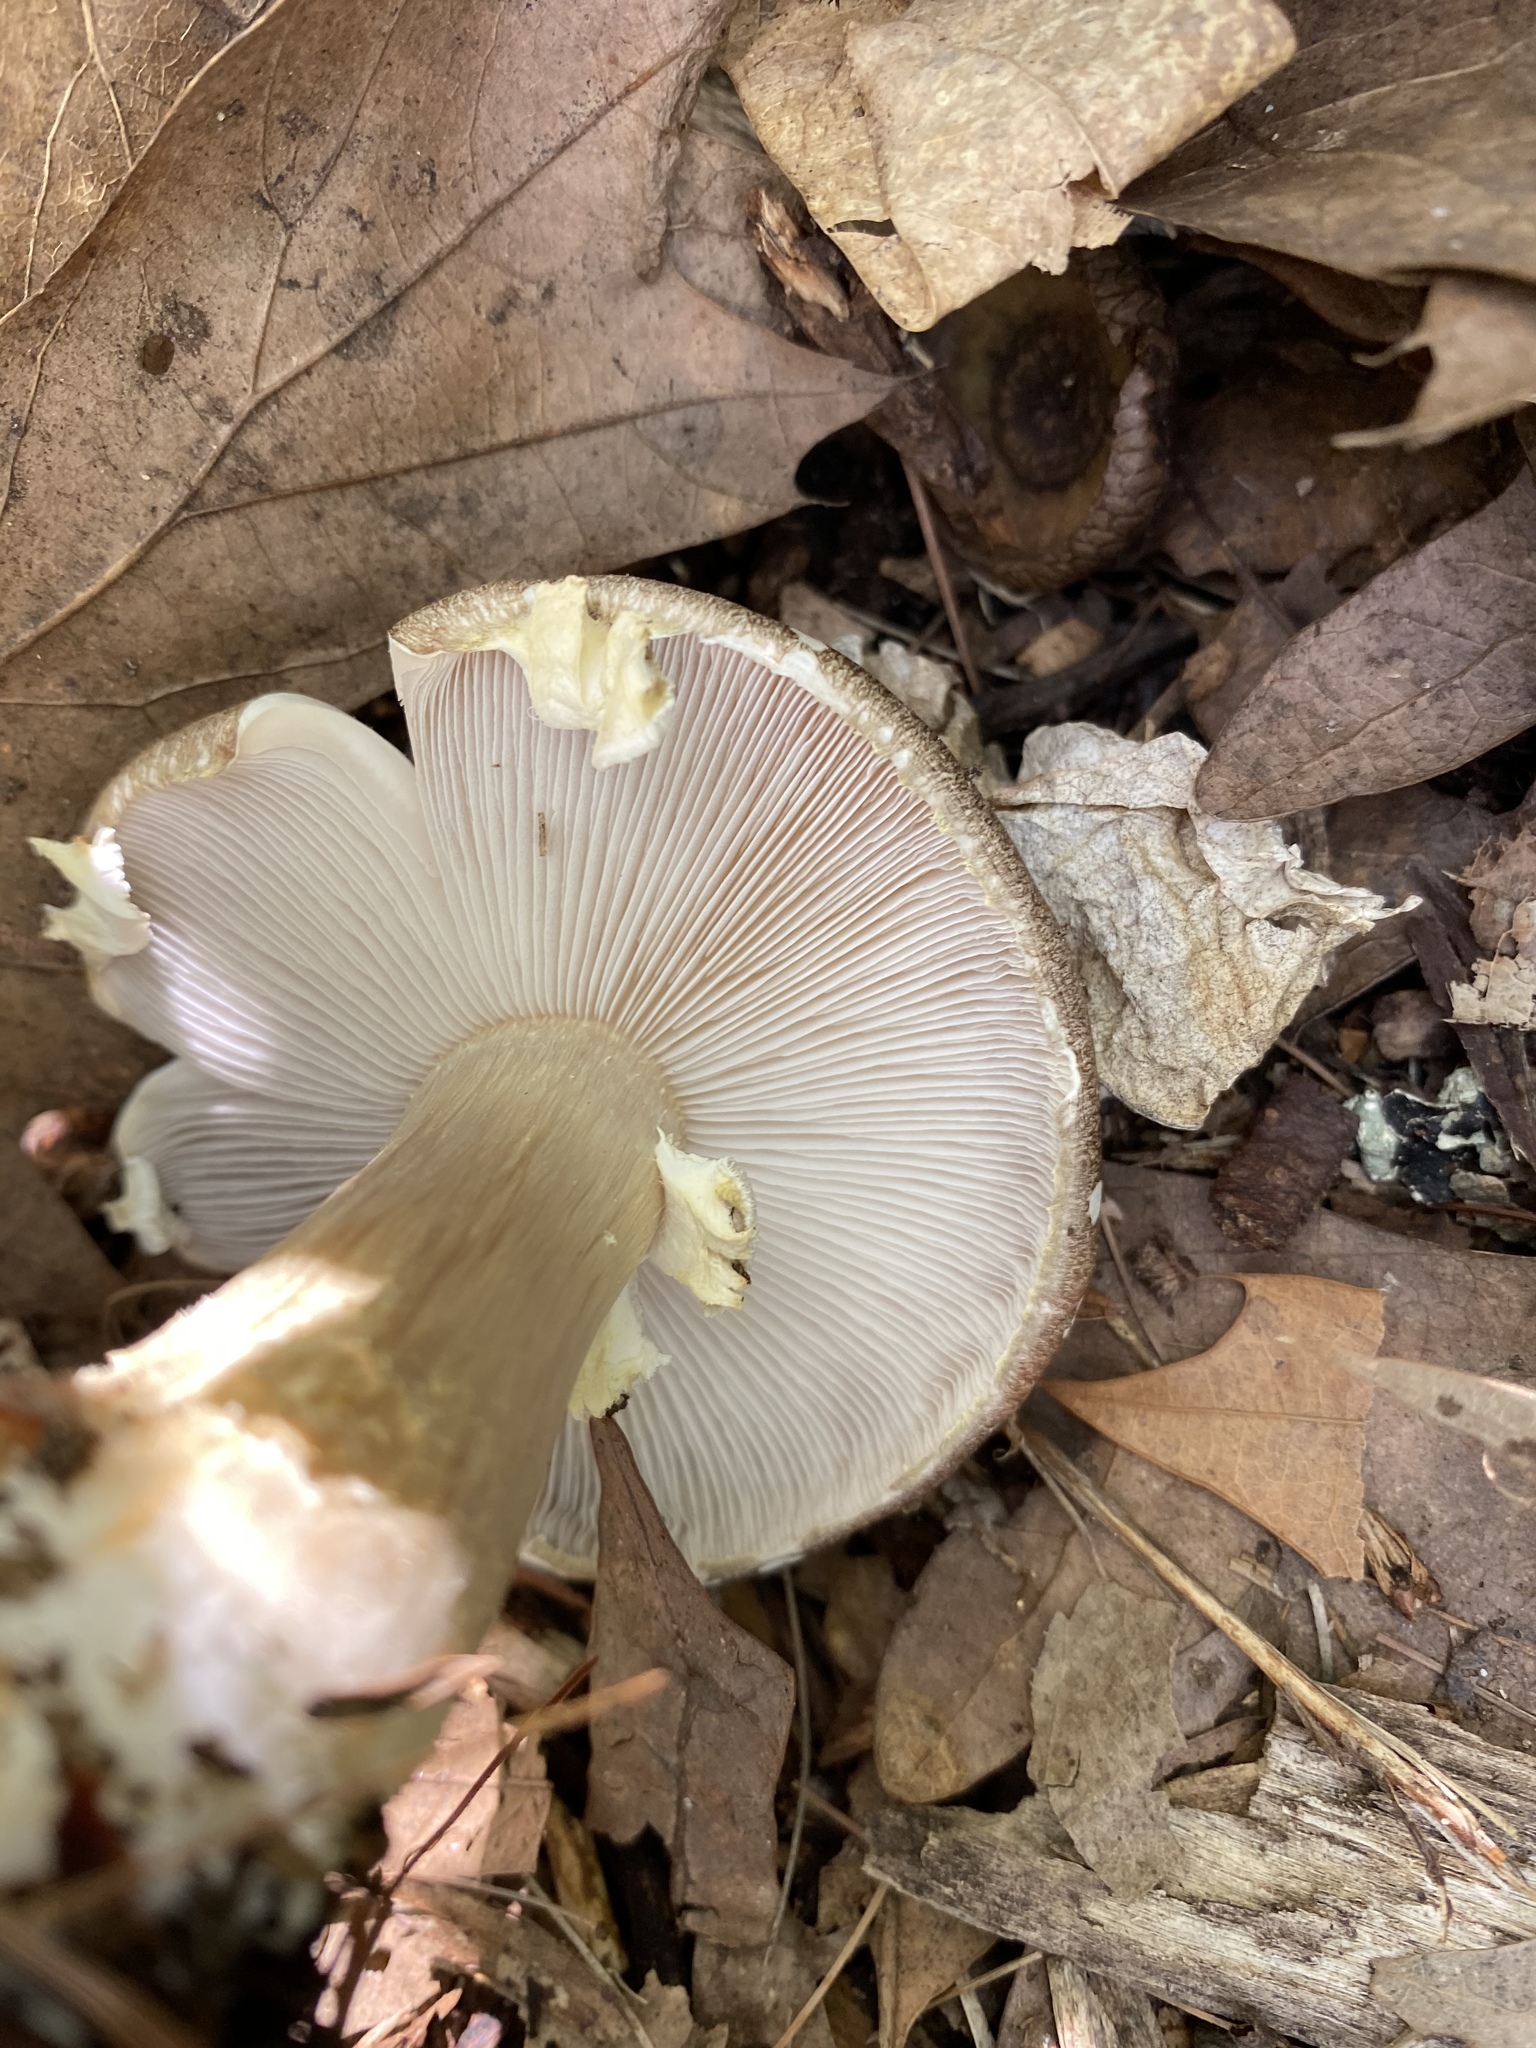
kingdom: Fungi
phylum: Basidiomycota
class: Agaricomycetes
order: Agaricales
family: Strophariaceae
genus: Stropharia
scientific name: Stropharia rugosoannulata
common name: Wine roundhead
